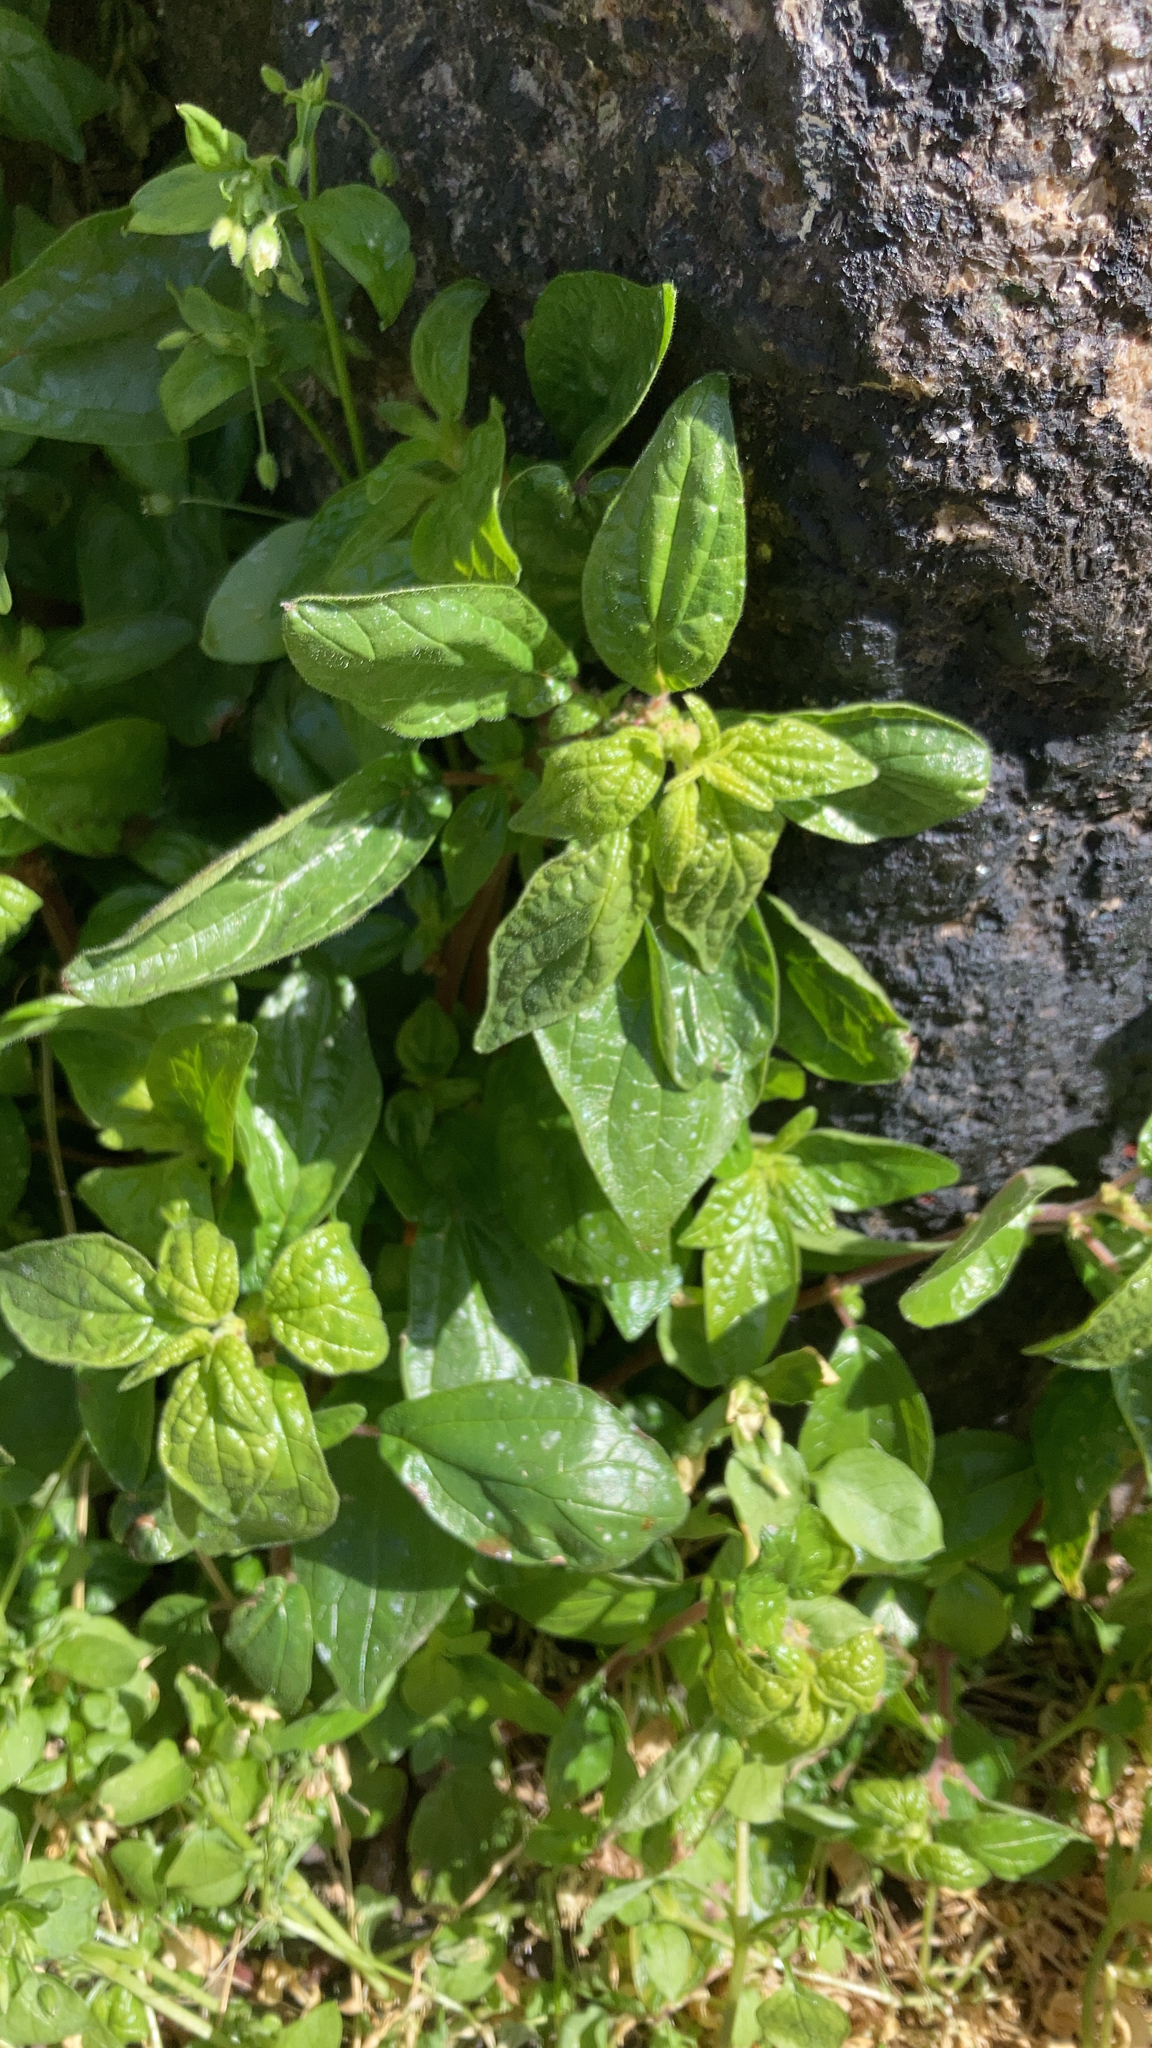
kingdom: Plantae
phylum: Tracheophyta
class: Magnoliopsida
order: Rosales
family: Urticaceae
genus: Parietaria
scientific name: Parietaria judaica
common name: Pellitory-of-the-wall
